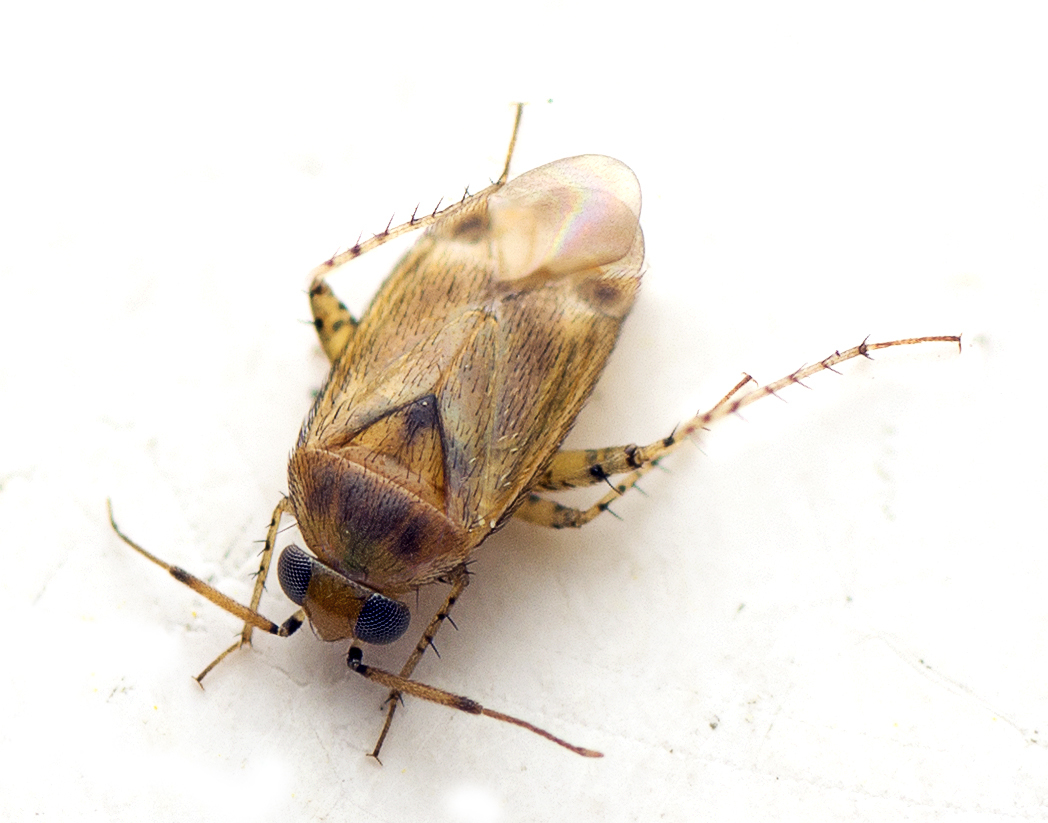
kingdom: Animalia
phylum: Arthropoda
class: Insecta
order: Hemiptera
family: Miridae
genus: Campylomma
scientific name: Campylomma liebknechti
